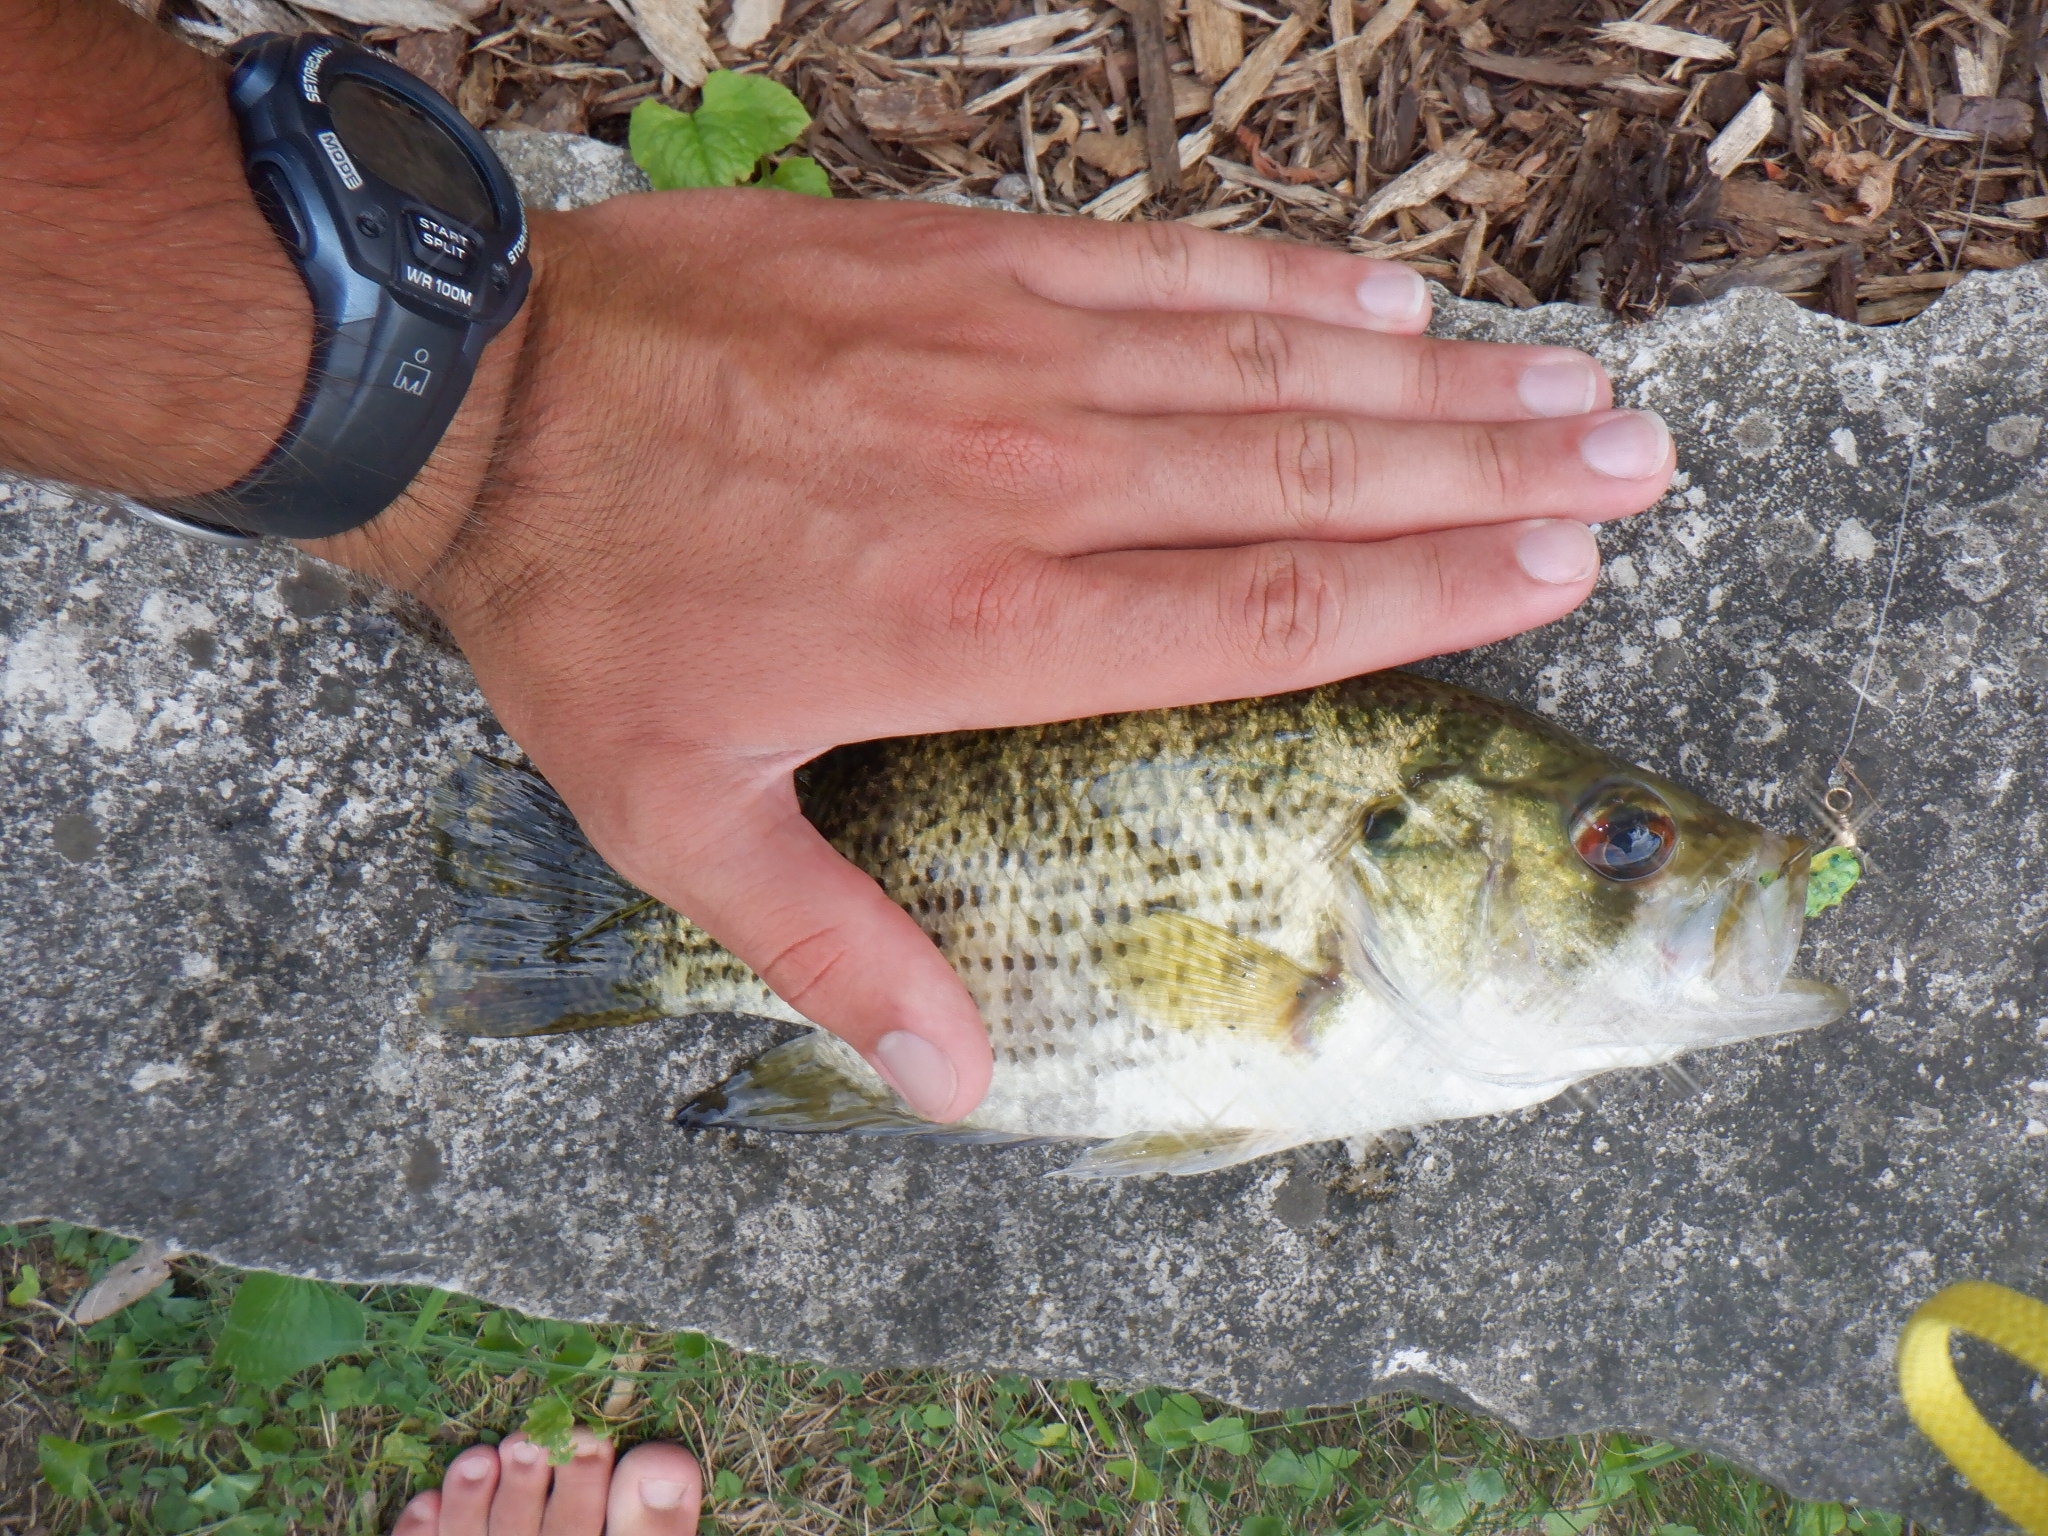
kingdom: Animalia
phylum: Chordata
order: Perciformes
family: Centrarchidae
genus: Ambloplites
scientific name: Ambloplites rupestris
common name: Rock bass
